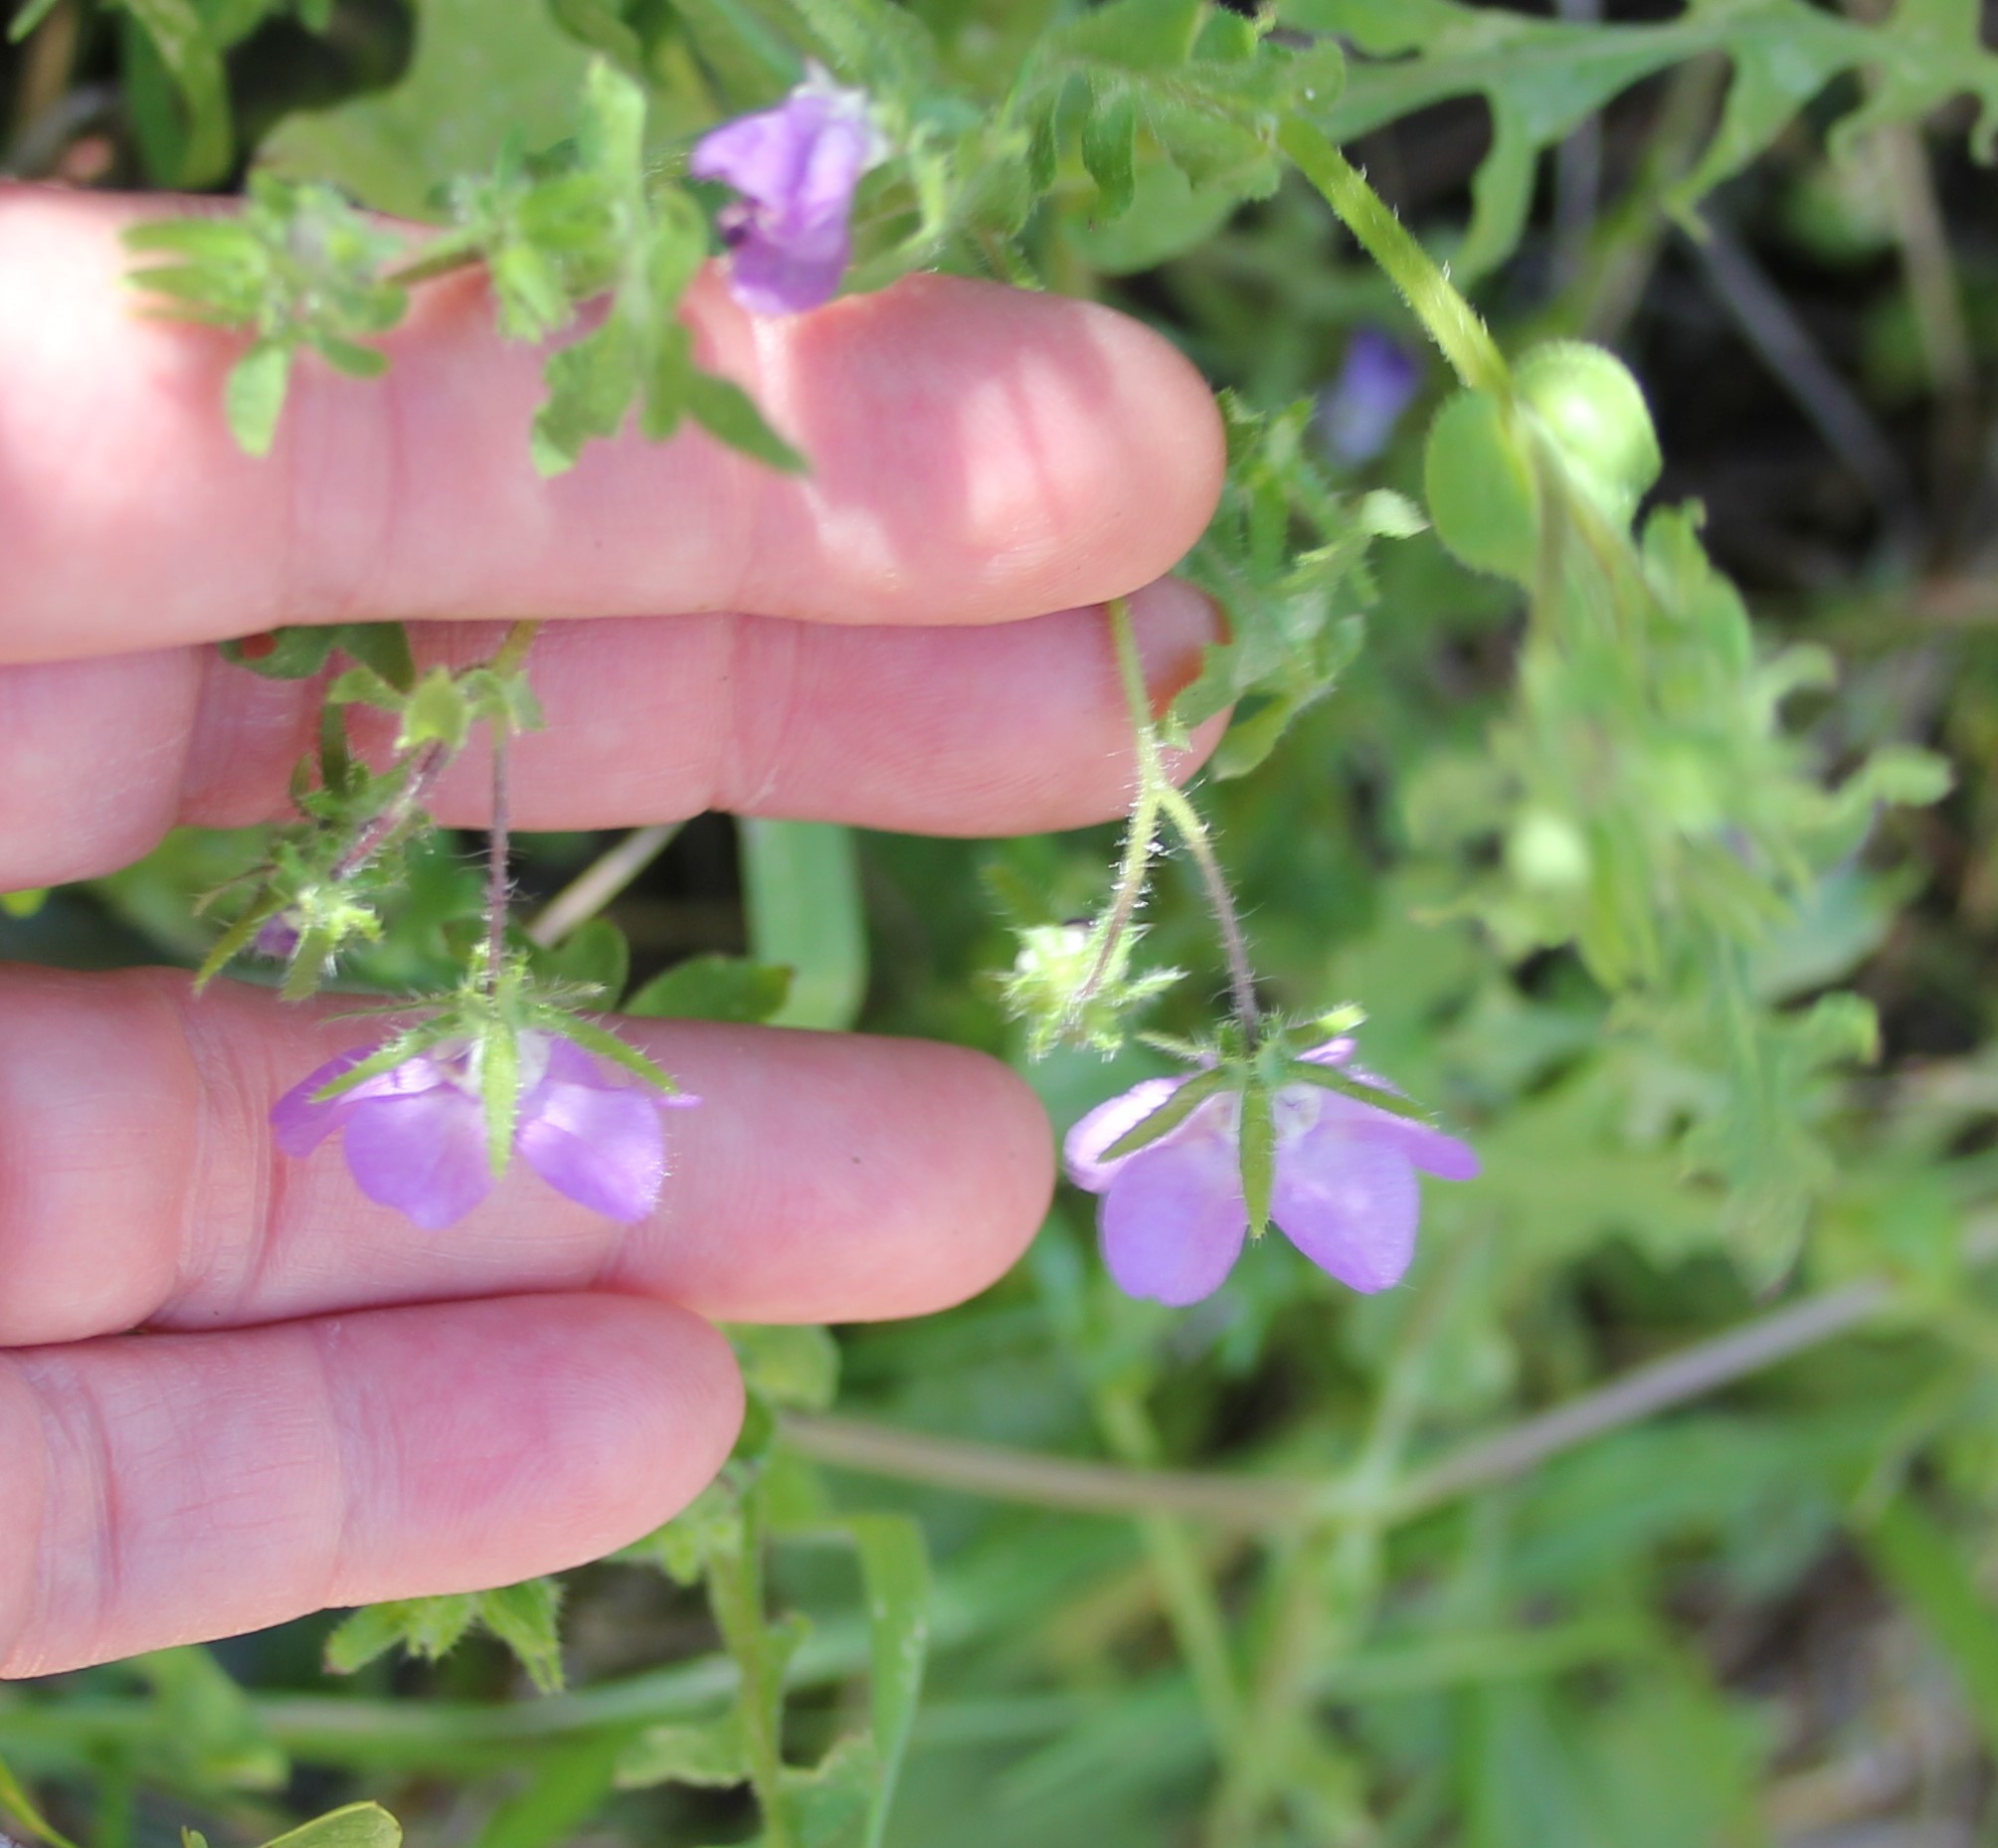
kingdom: Plantae
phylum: Tracheophyta
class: Magnoliopsida
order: Boraginales
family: Hydrophyllaceae
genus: Pholistoma
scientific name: Pholistoma auritum
